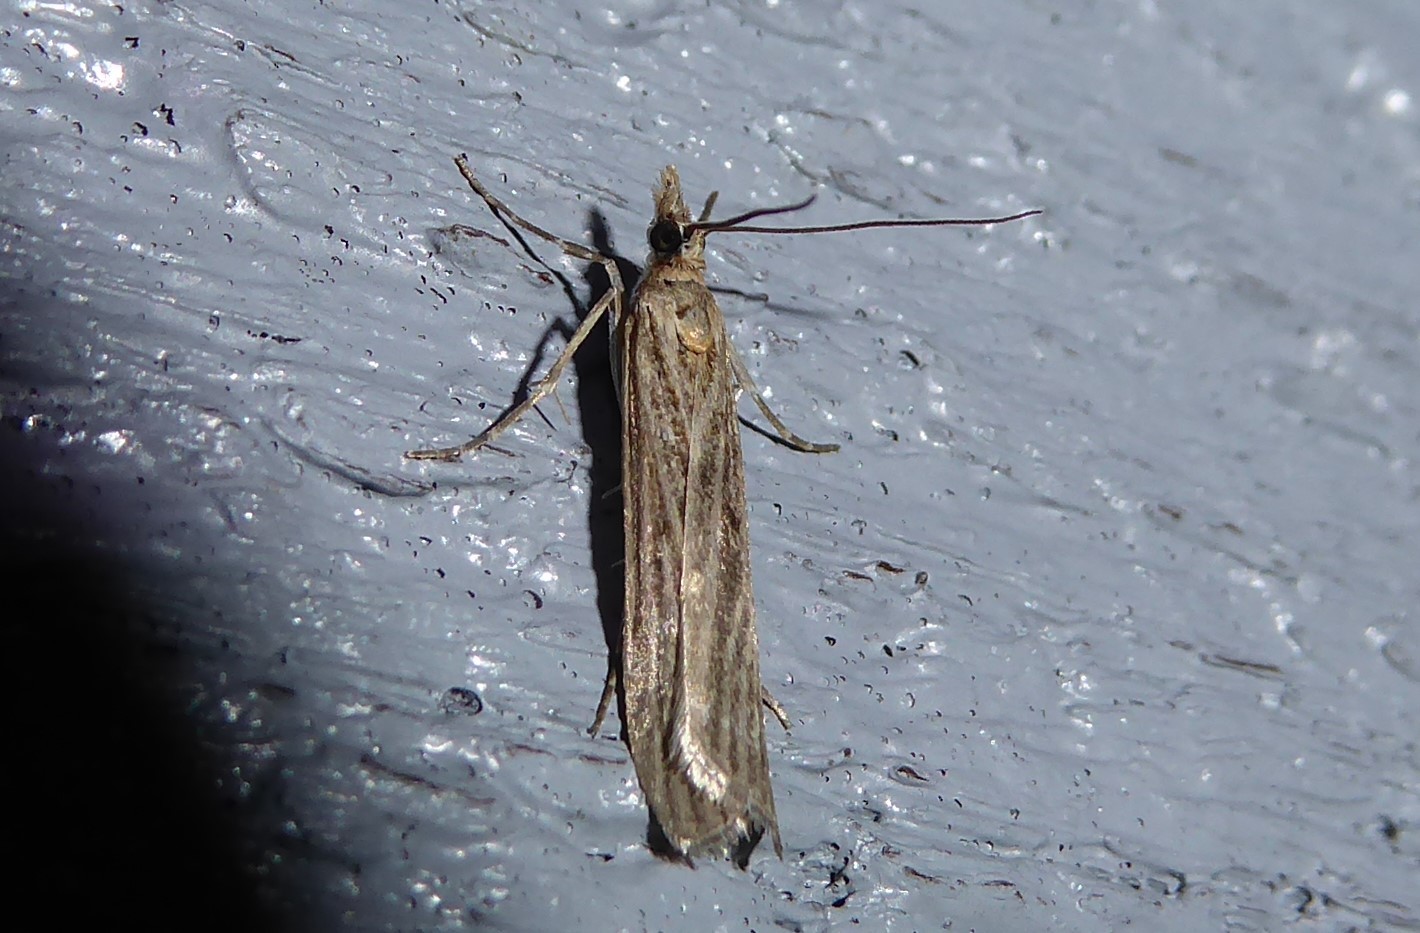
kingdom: Animalia
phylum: Arthropoda
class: Insecta
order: Lepidoptera
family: Crambidae
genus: Eudonia
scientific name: Eudonia atmogramma
